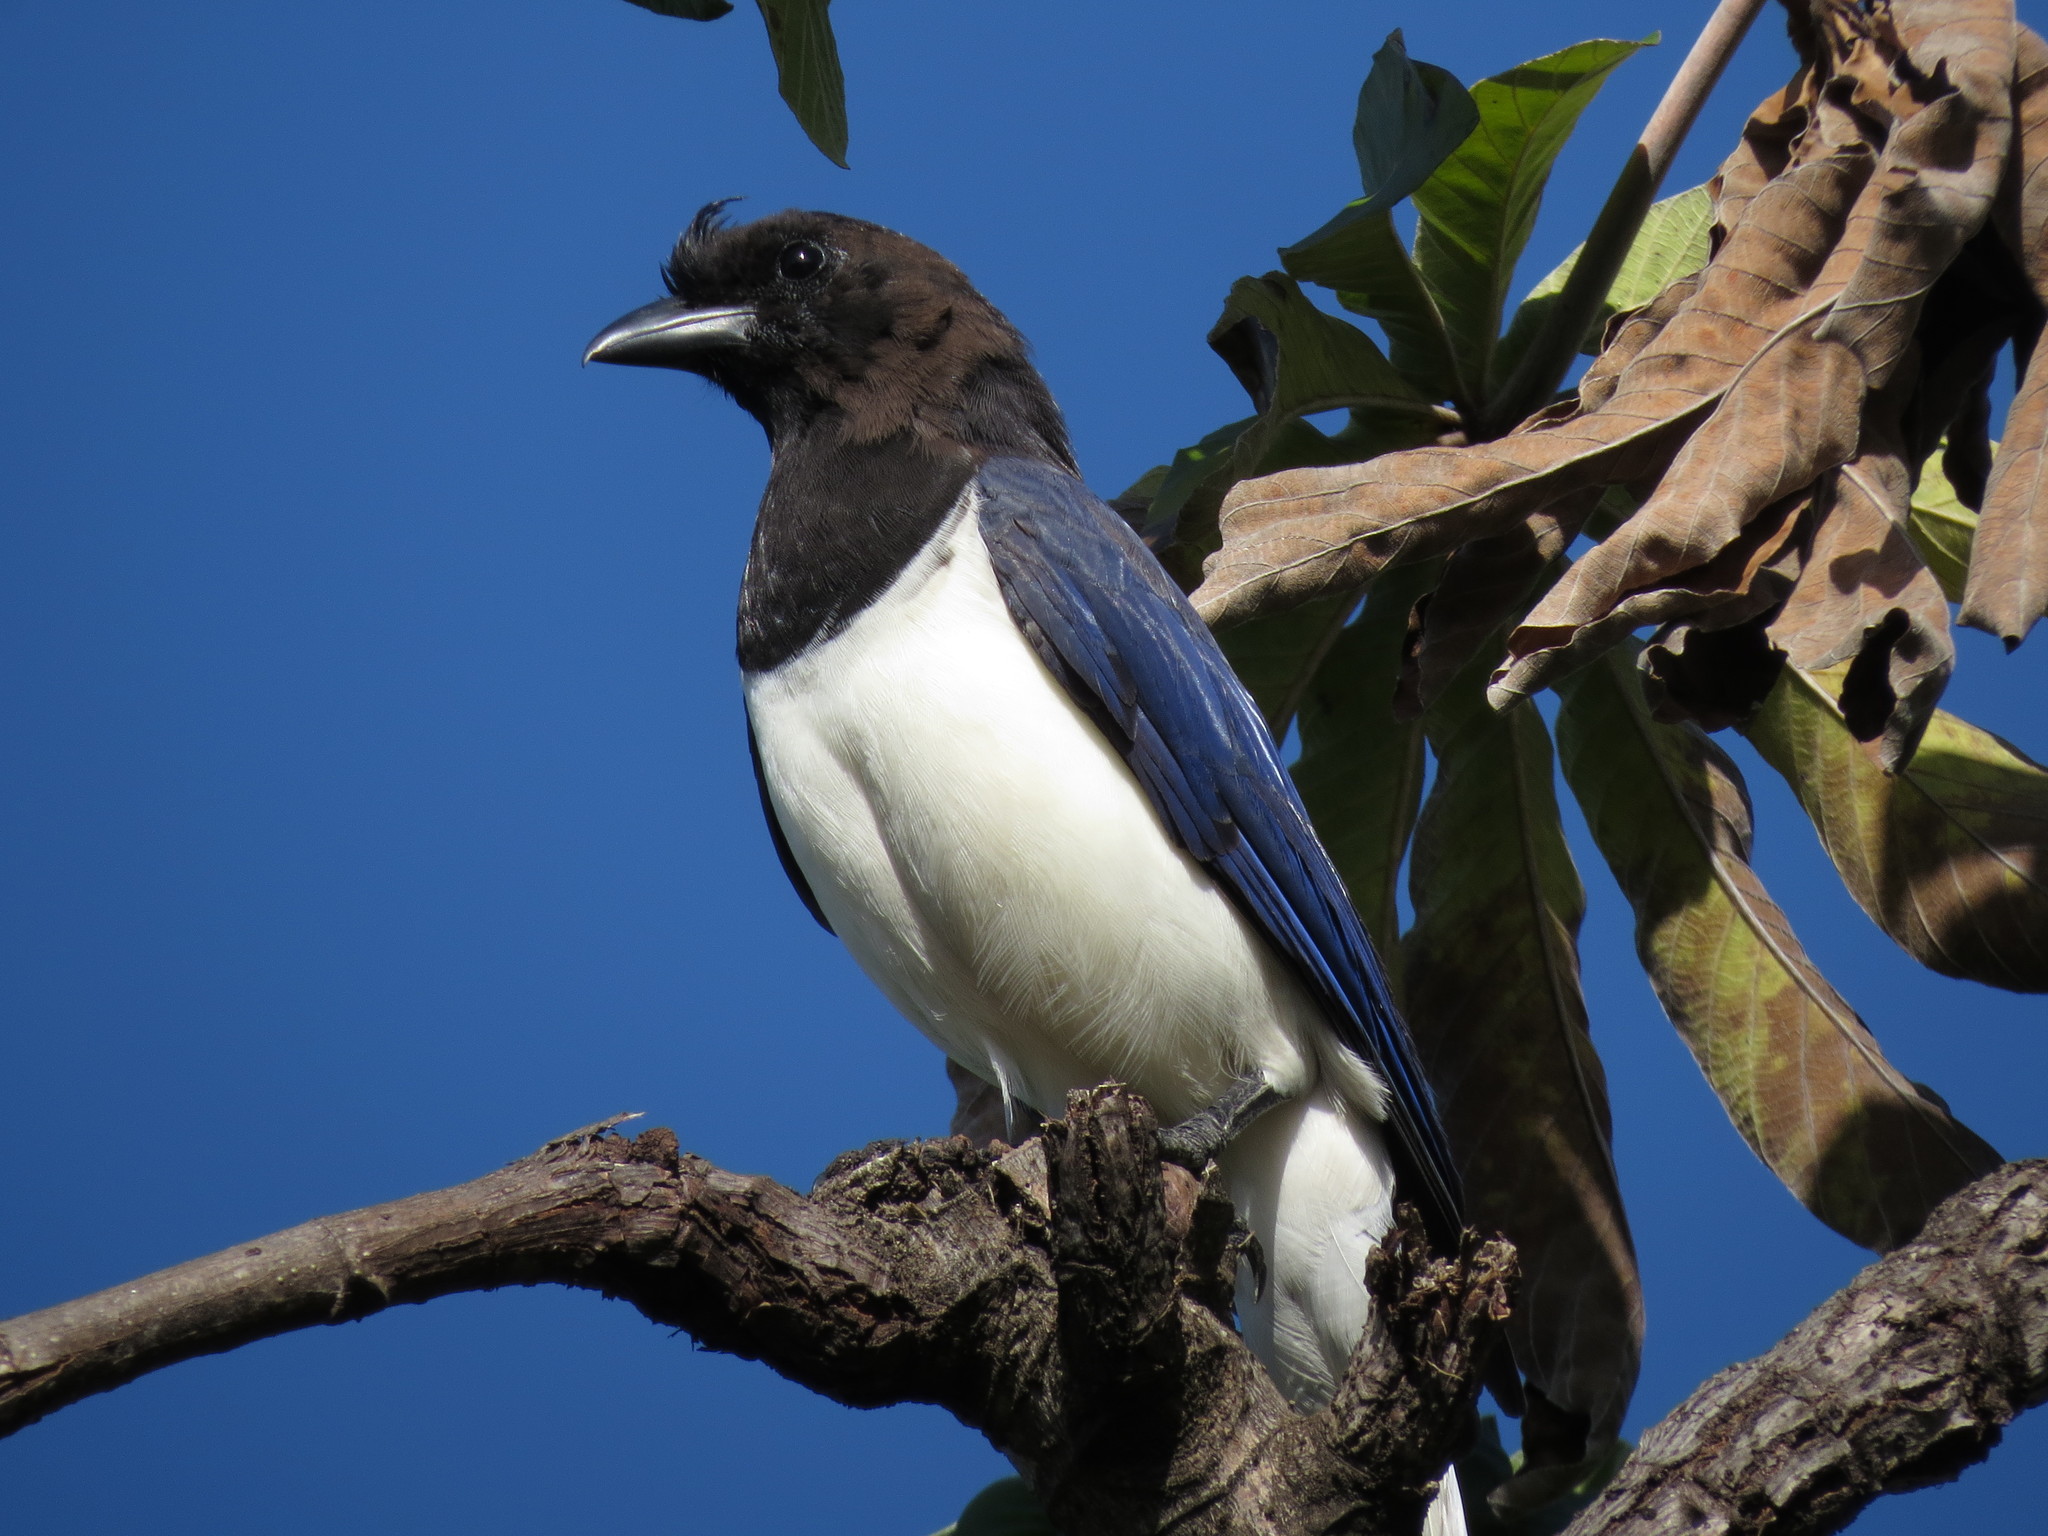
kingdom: Animalia
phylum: Chordata
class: Aves
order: Passeriformes
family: Corvidae
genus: Cyanocorax
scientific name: Cyanocorax cristatellus
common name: Curl-crested jay
